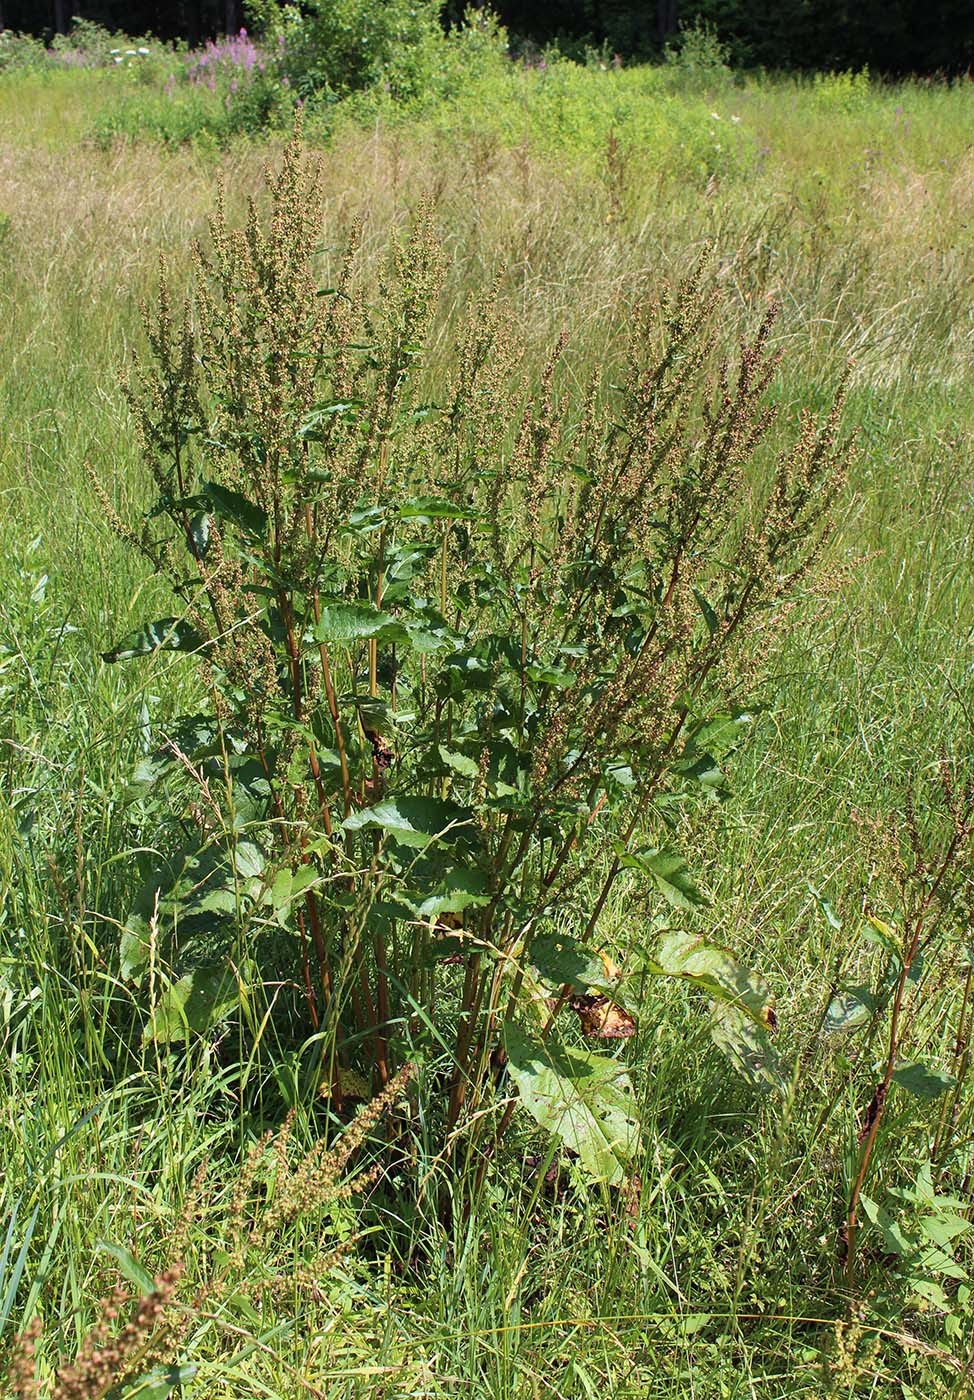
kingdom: Plantae
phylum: Tracheophyta
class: Magnoliopsida
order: Caryophyllales
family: Polygonaceae
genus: Rumex
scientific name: Rumex obtusifolius
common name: Bitter dock
